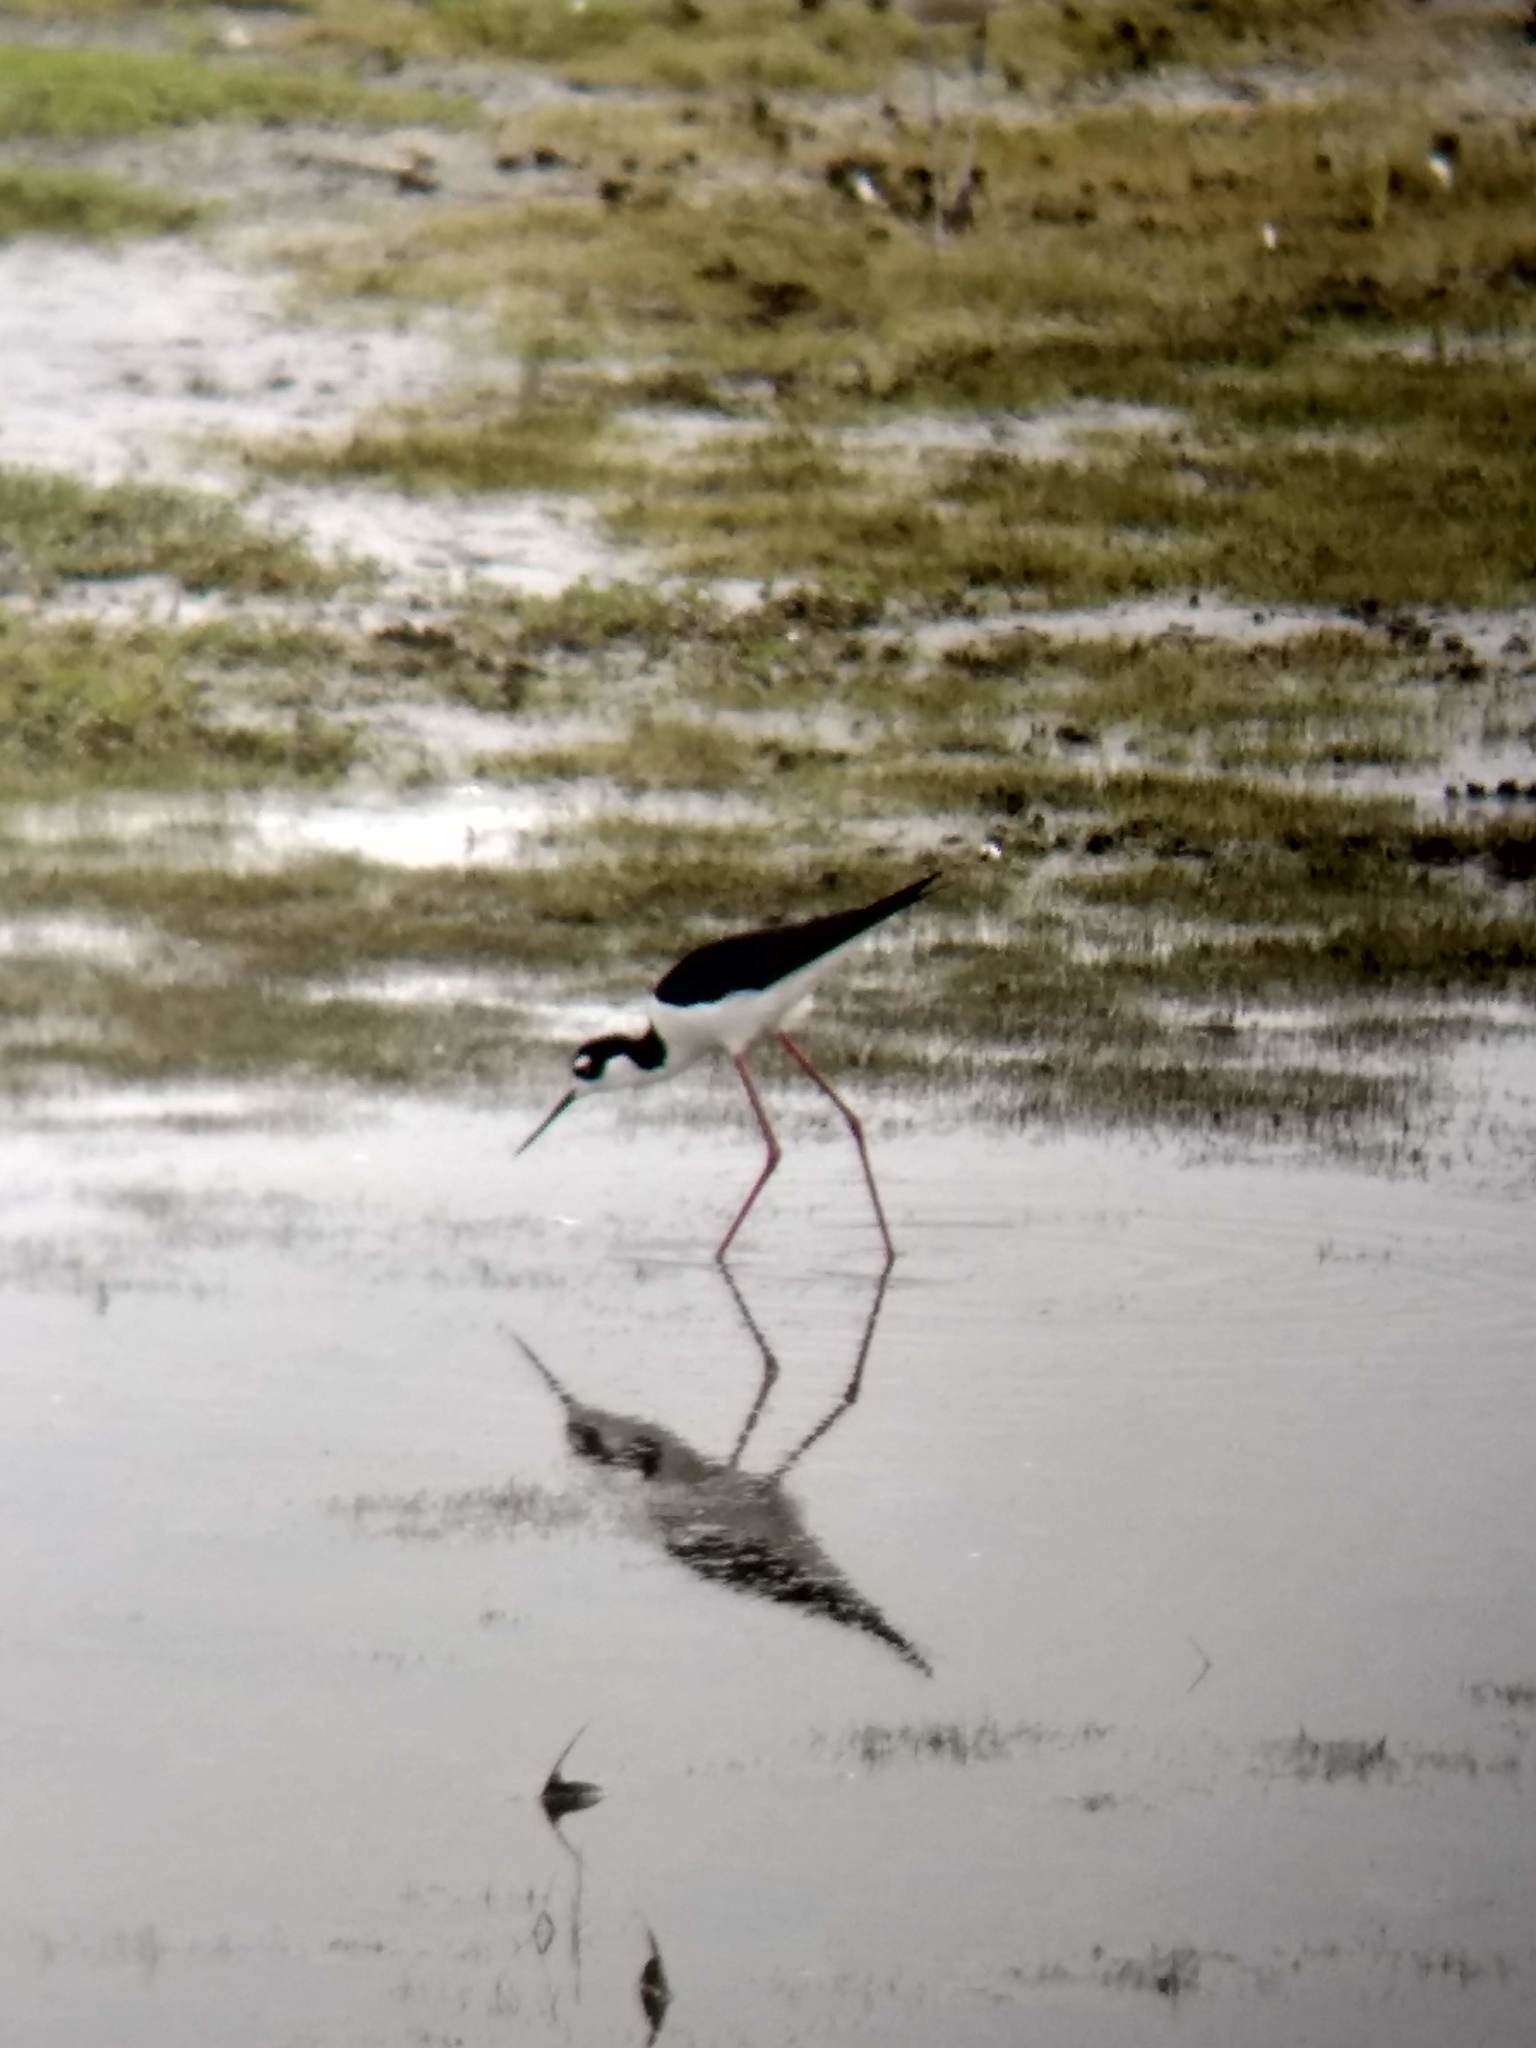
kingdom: Animalia
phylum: Chordata
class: Aves
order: Charadriiformes
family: Recurvirostridae
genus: Himantopus
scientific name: Himantopus mexicanus
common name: Black-necked stilt
